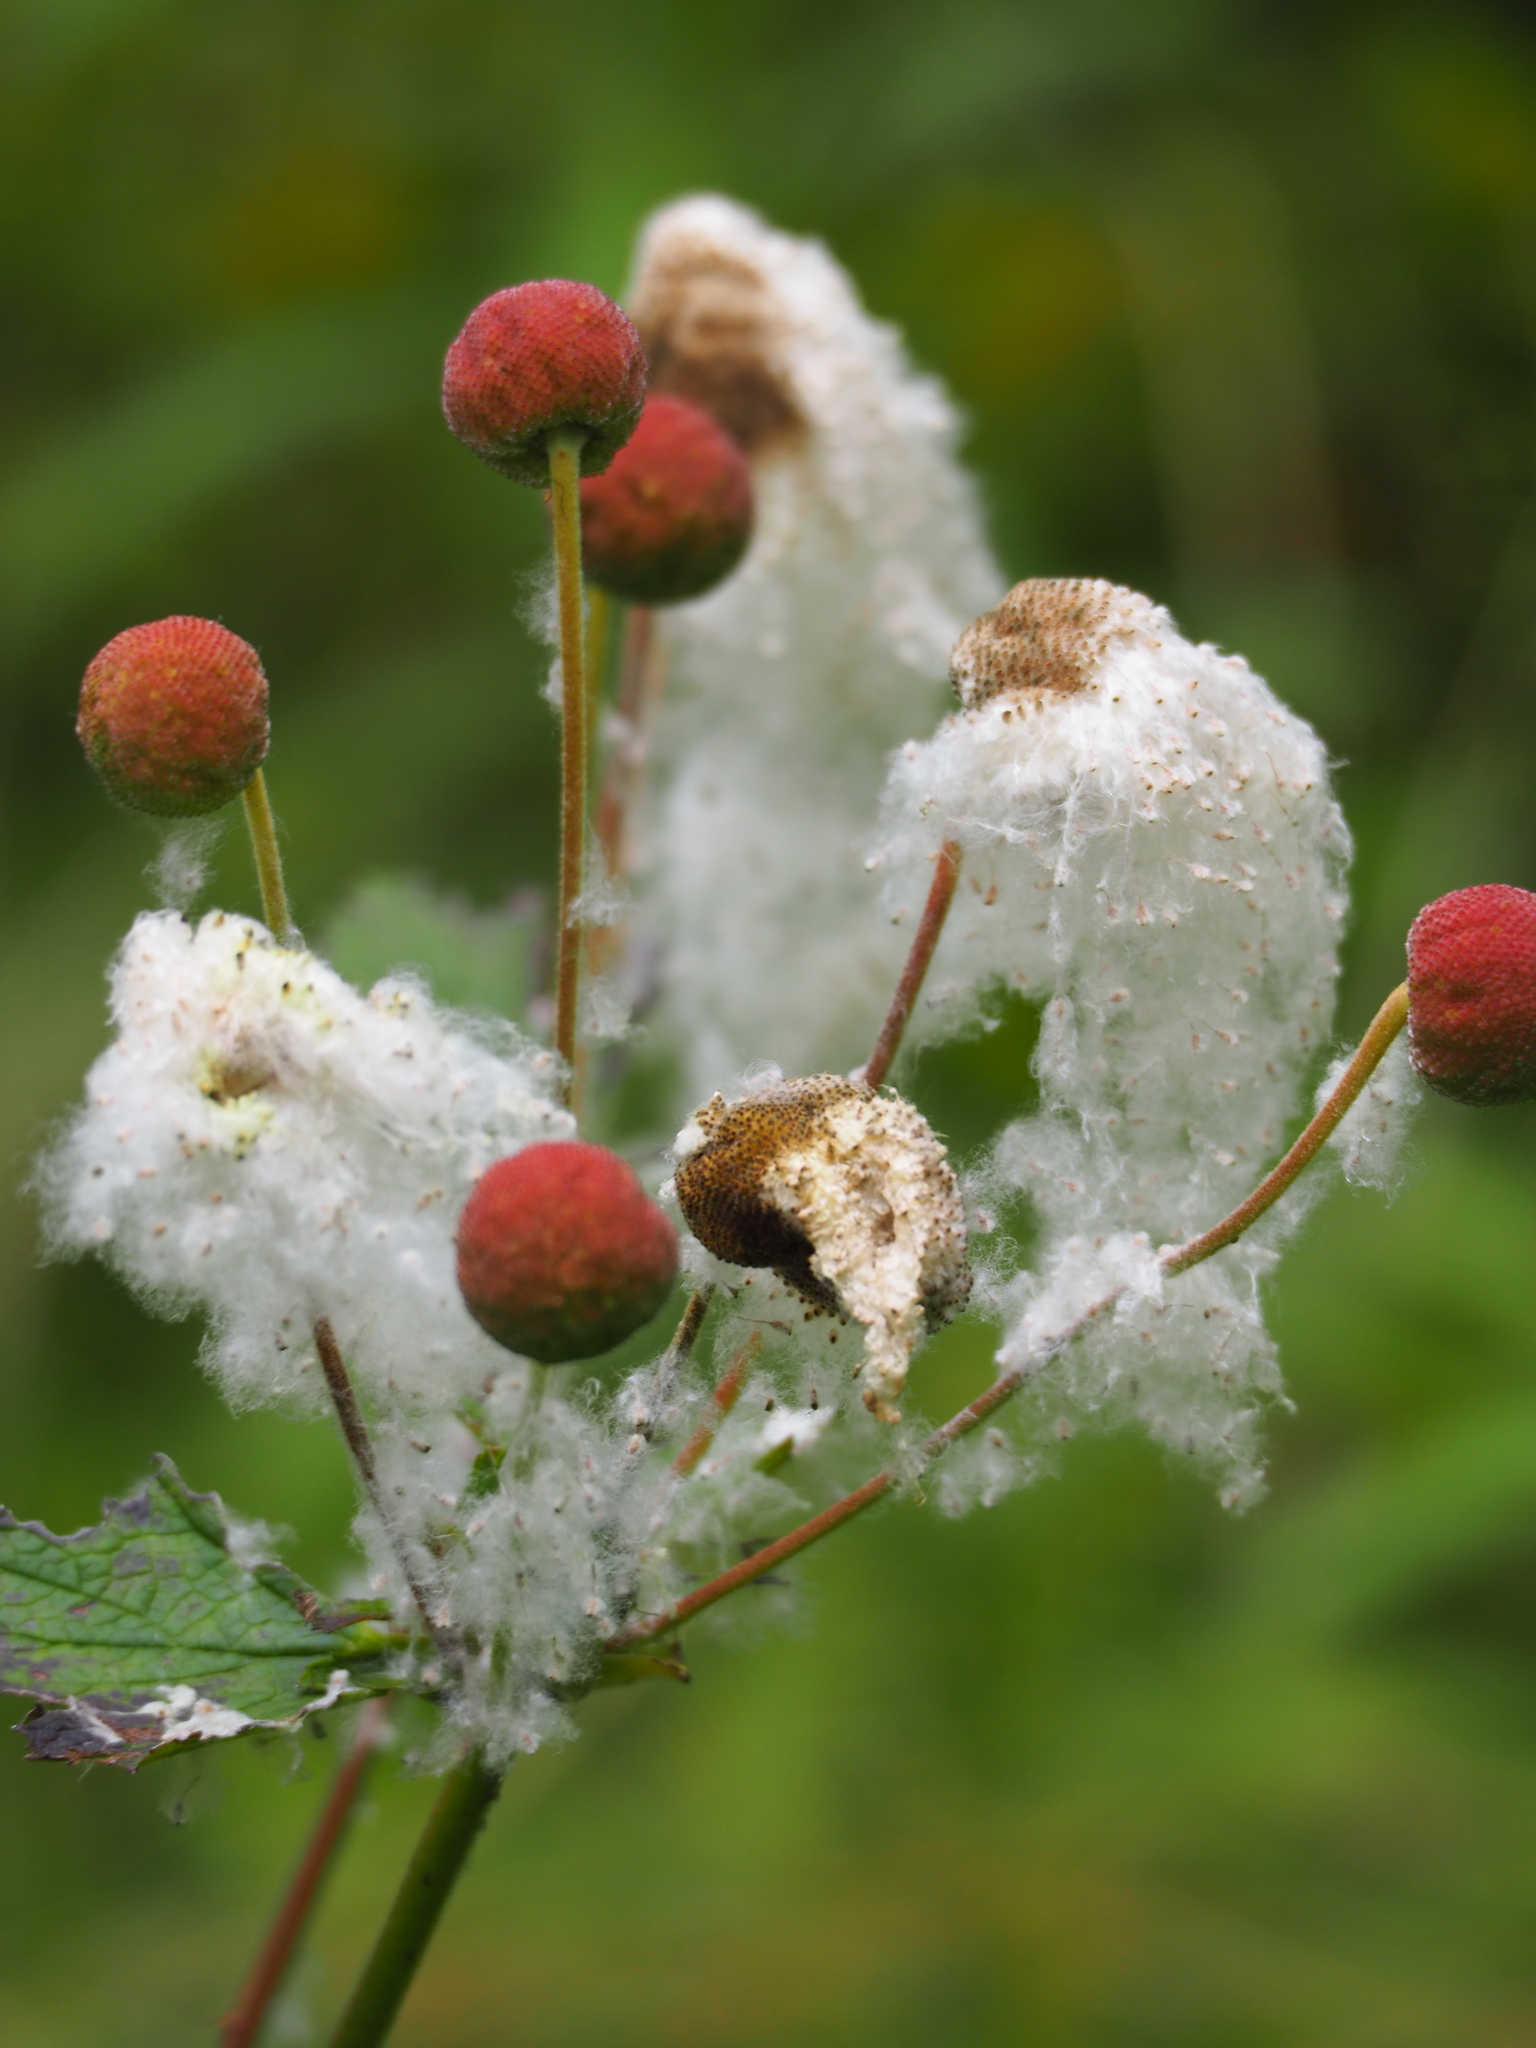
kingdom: Plantae
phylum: Tracheophyta
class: Magnoliopsida
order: Ranunculales
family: Ranunculaceae
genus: Eriocapitella
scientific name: Eriocapitella vitifolia
